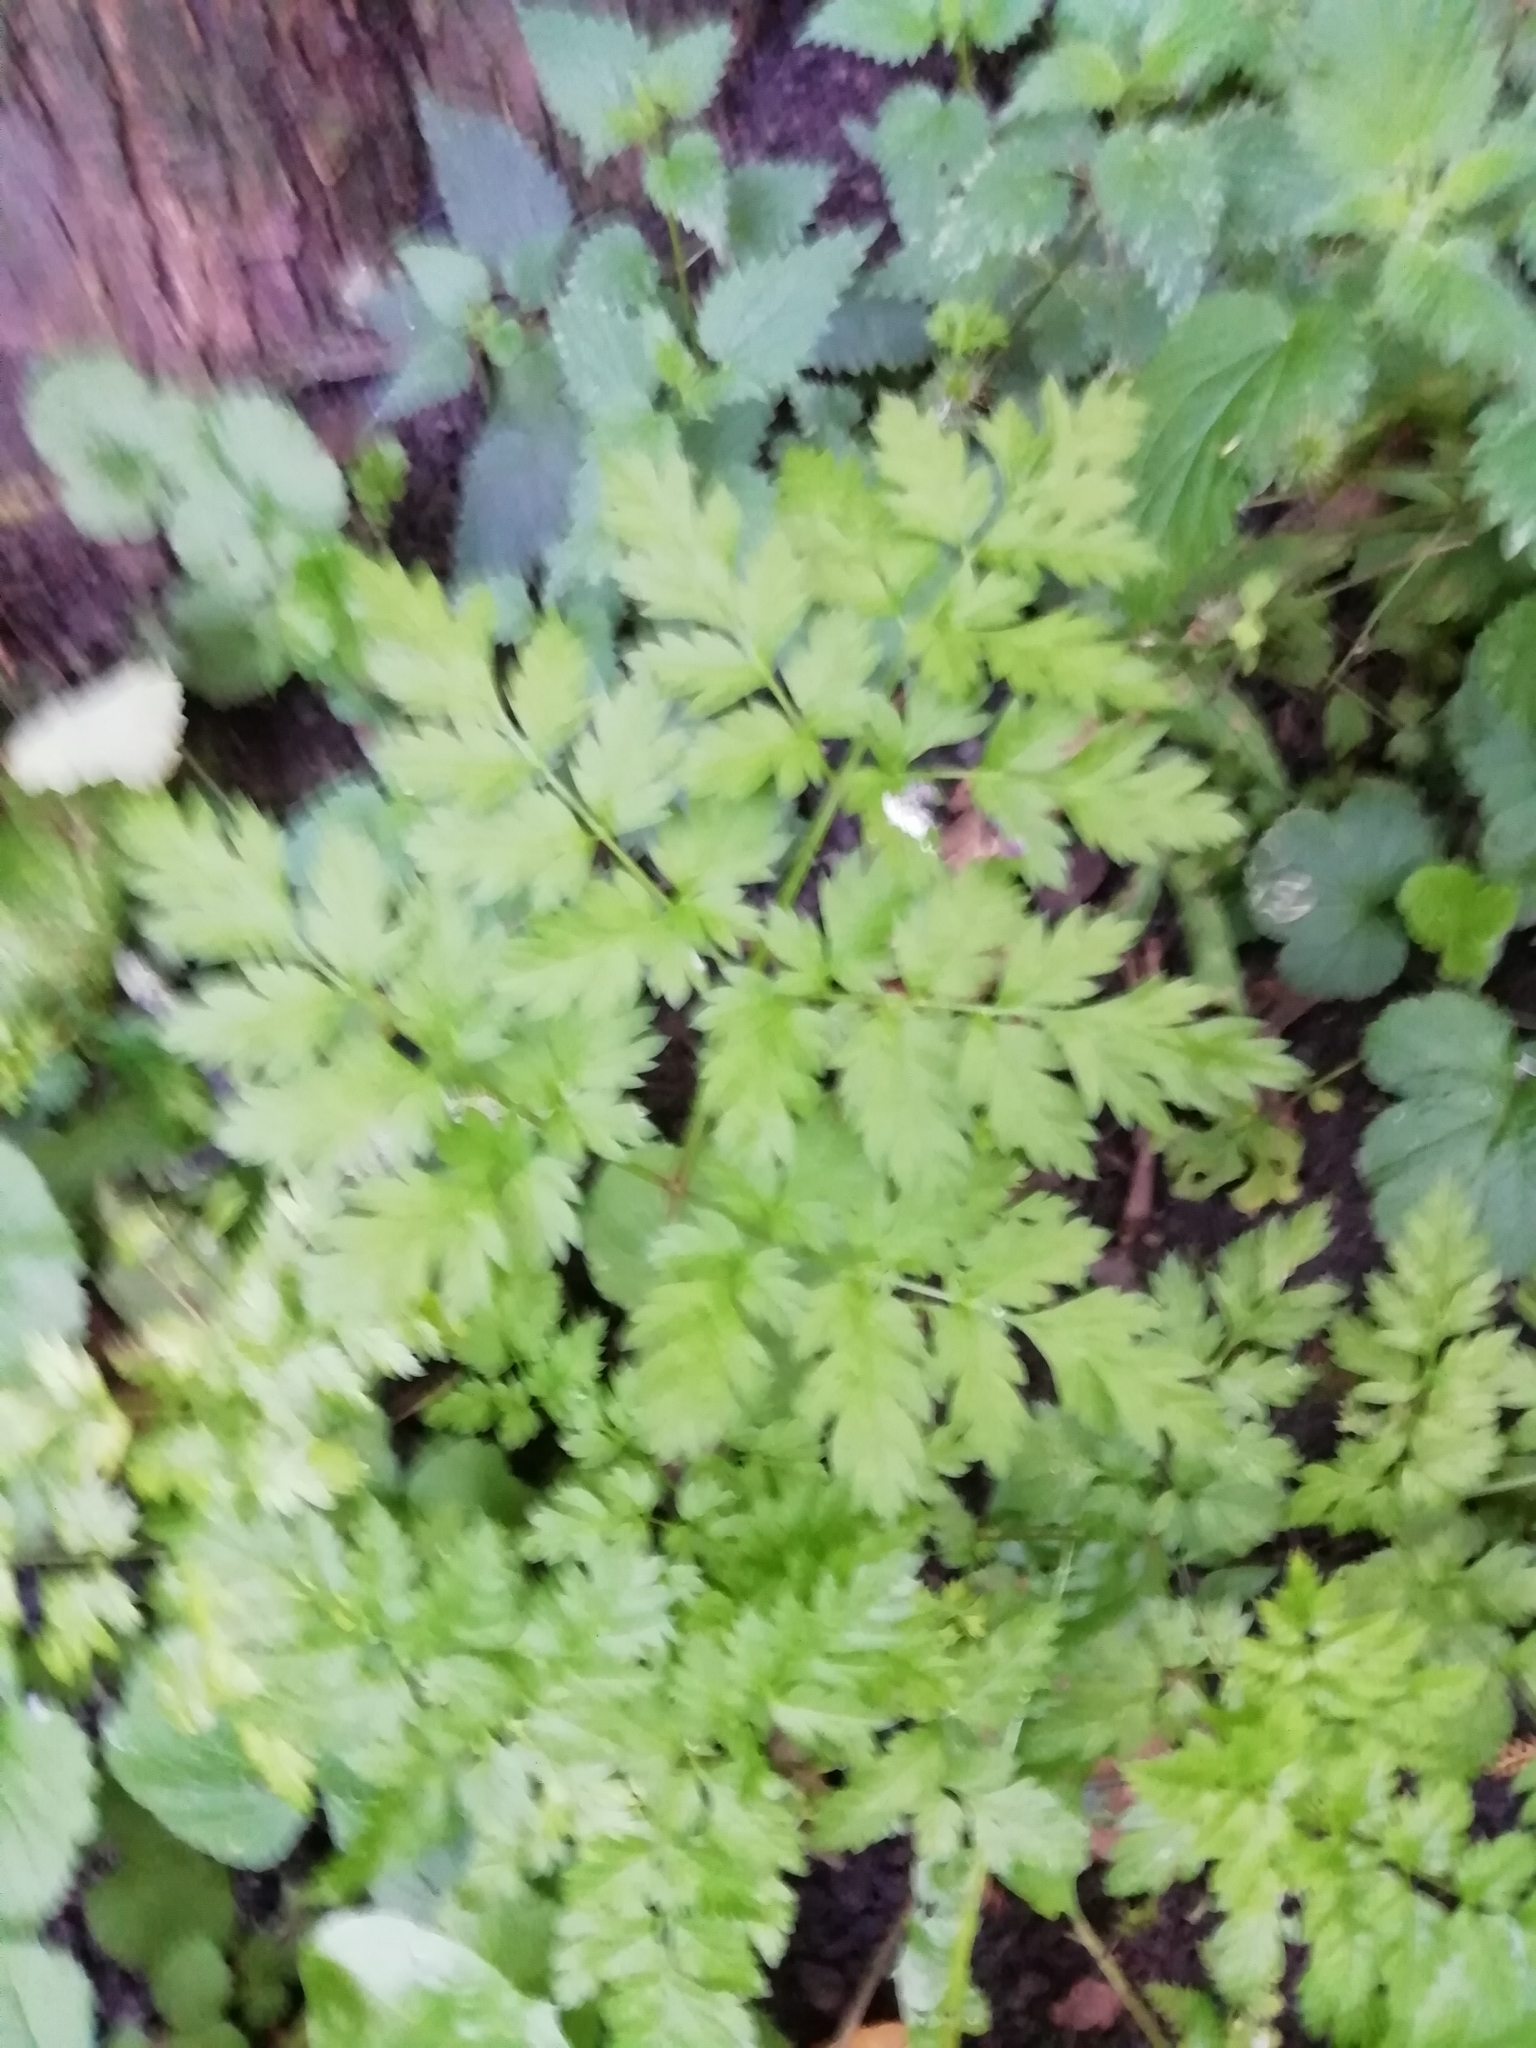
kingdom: Plantae
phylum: Tracheophyta
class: Magnoliopsida
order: Apiales
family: Apiaceae
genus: Anthriscus
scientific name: Anthriscus sylvestris
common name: Cow parsley
